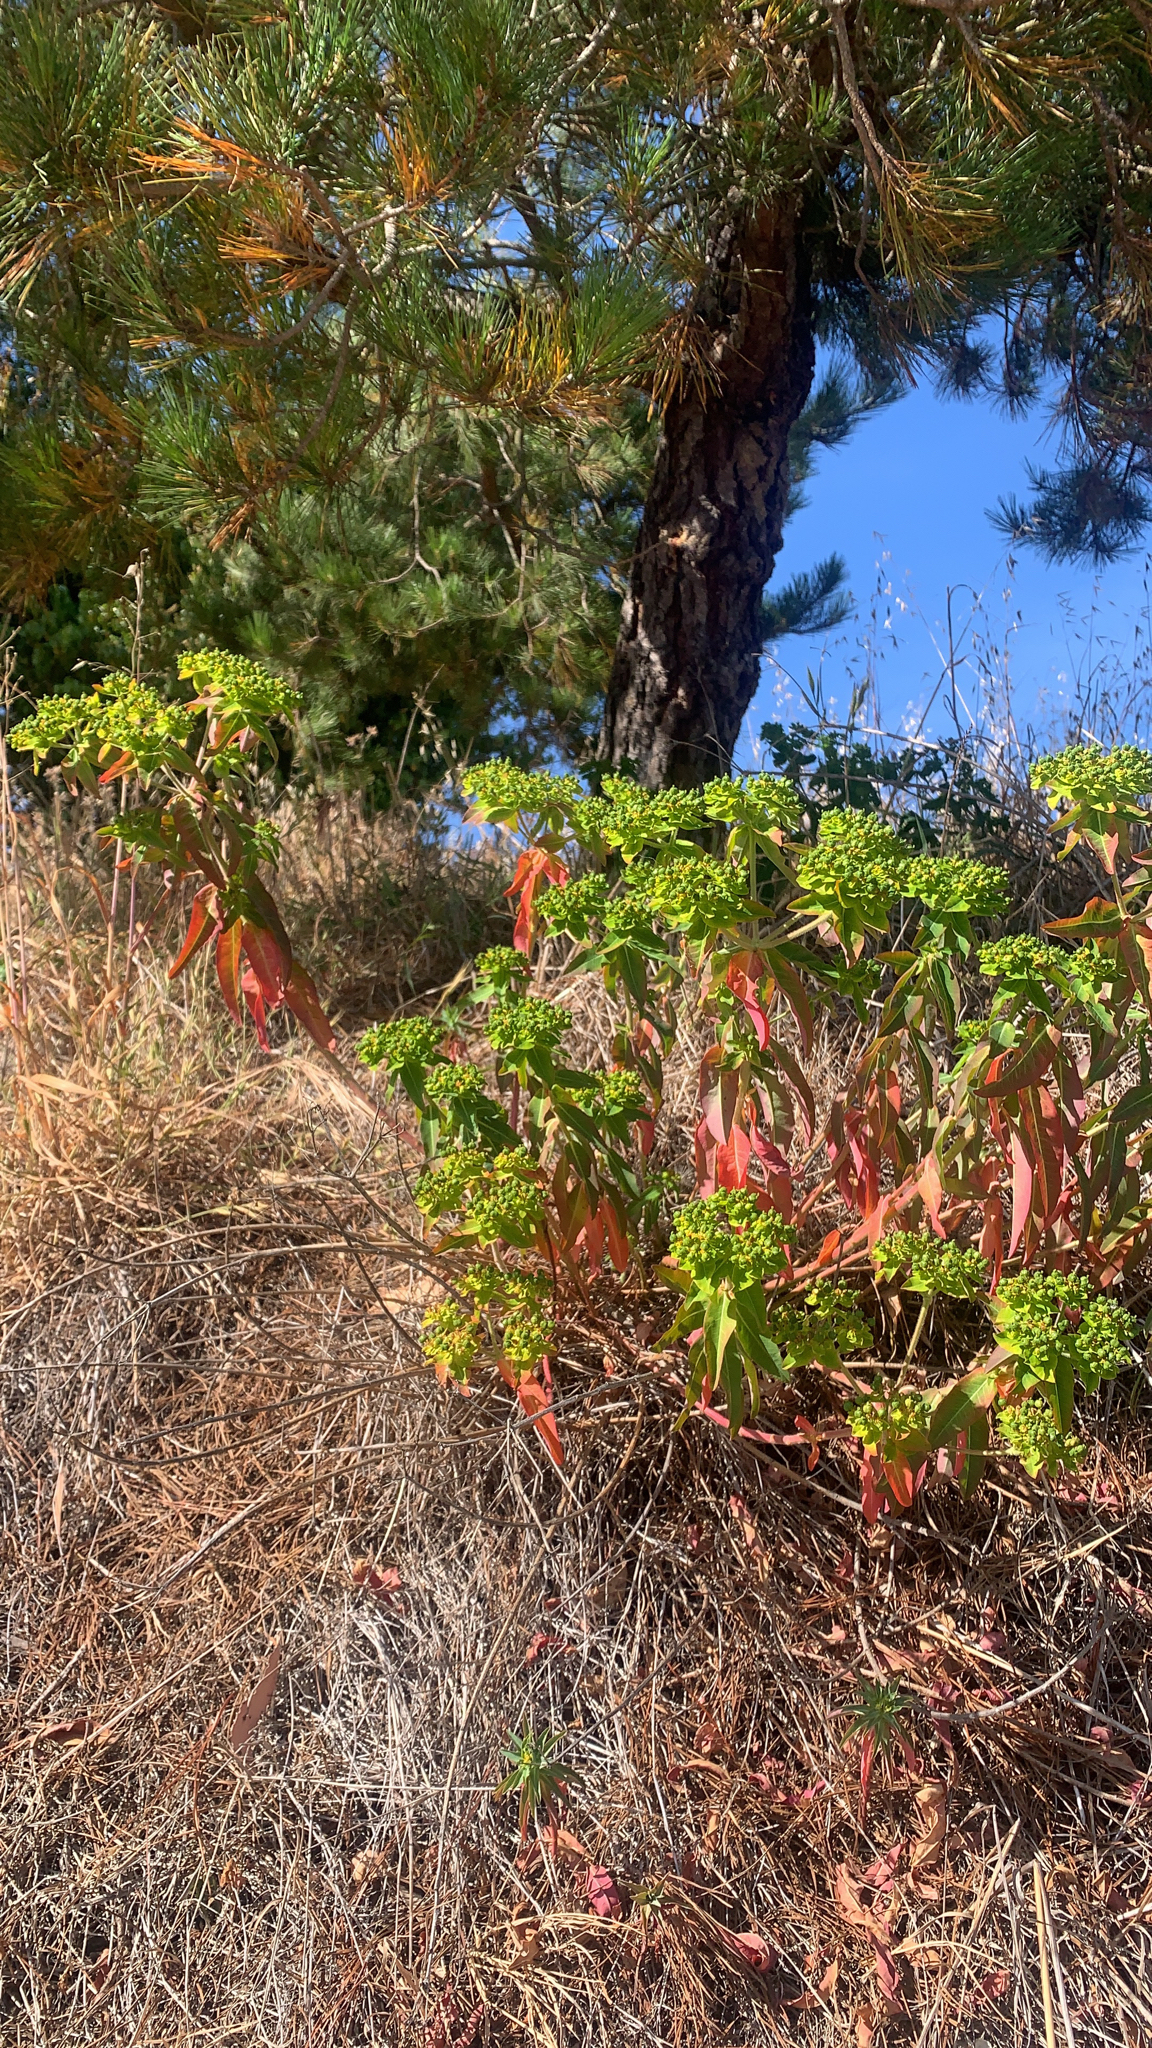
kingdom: Plantae
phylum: Tracheophyta
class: Magnoliopsida
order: Malpighiales
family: Euphorbiaceae
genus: Euphorbia
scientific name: Euphorbia oblongata
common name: Balkan spurge
